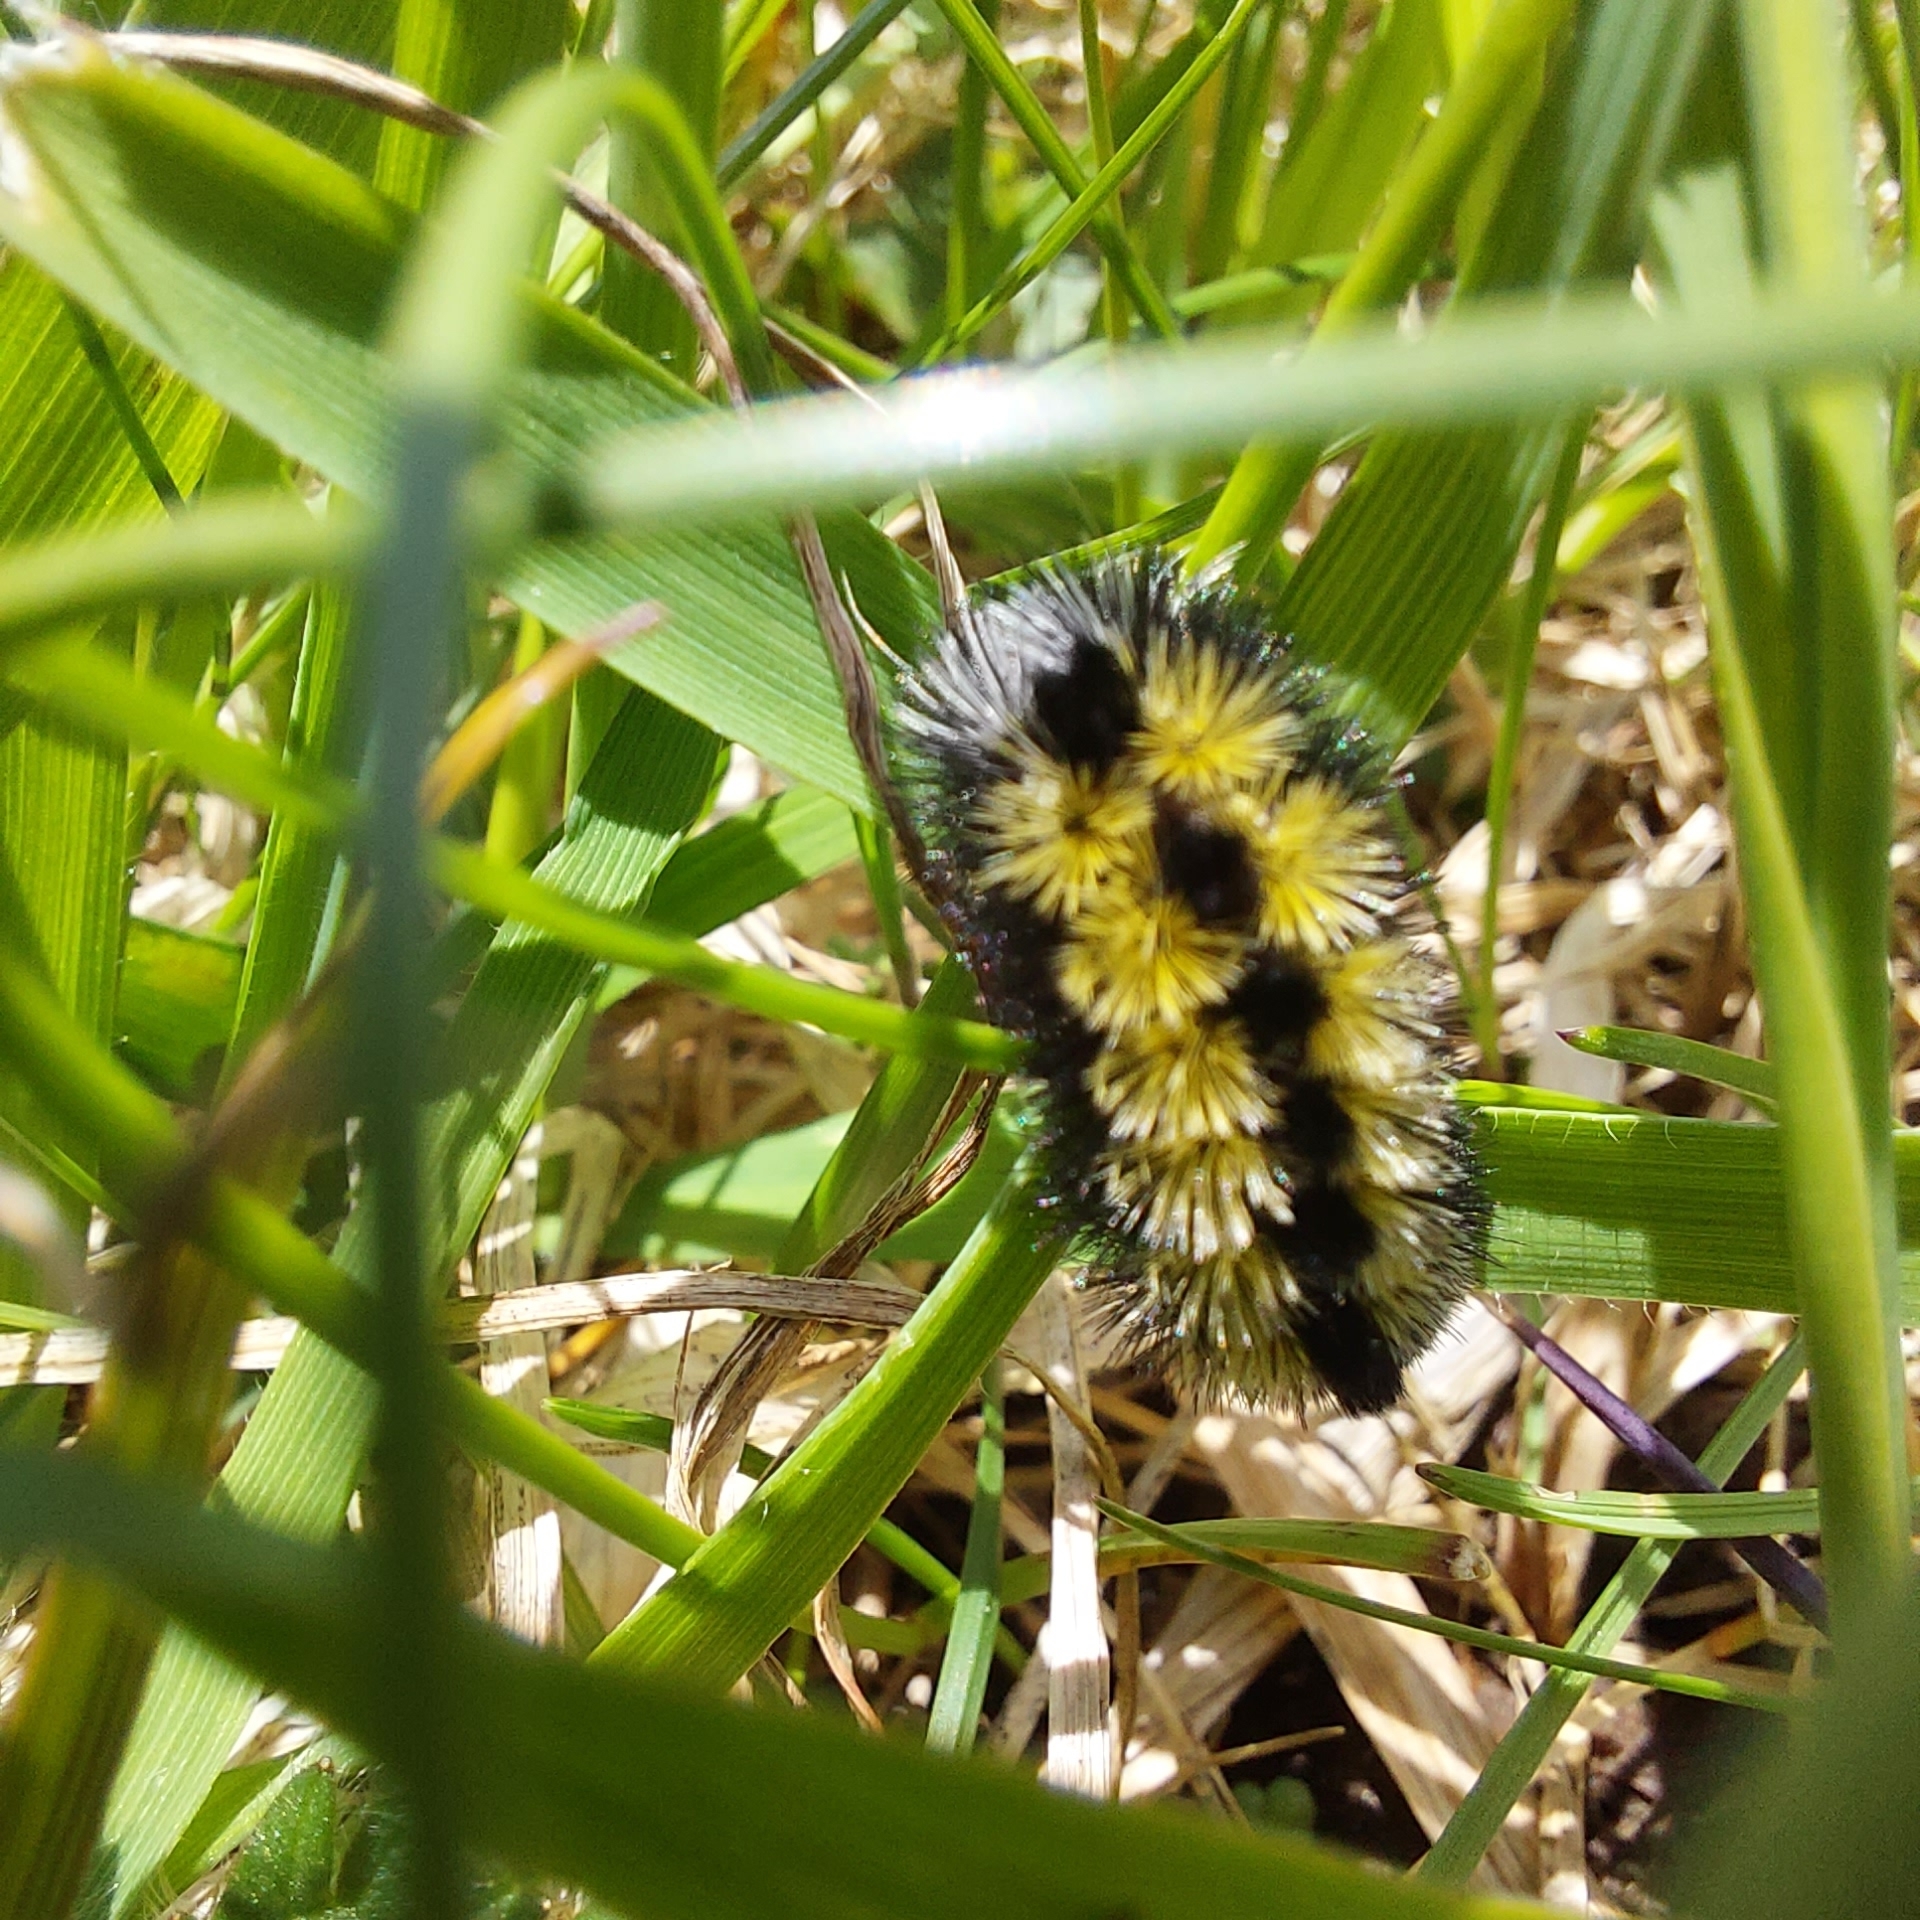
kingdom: Animalia
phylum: Arthropoda
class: Insecta
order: Lepidoptera
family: Erebidae
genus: Ctenucha
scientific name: Ctenucha virginica
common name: Virginia ctenucha moth
